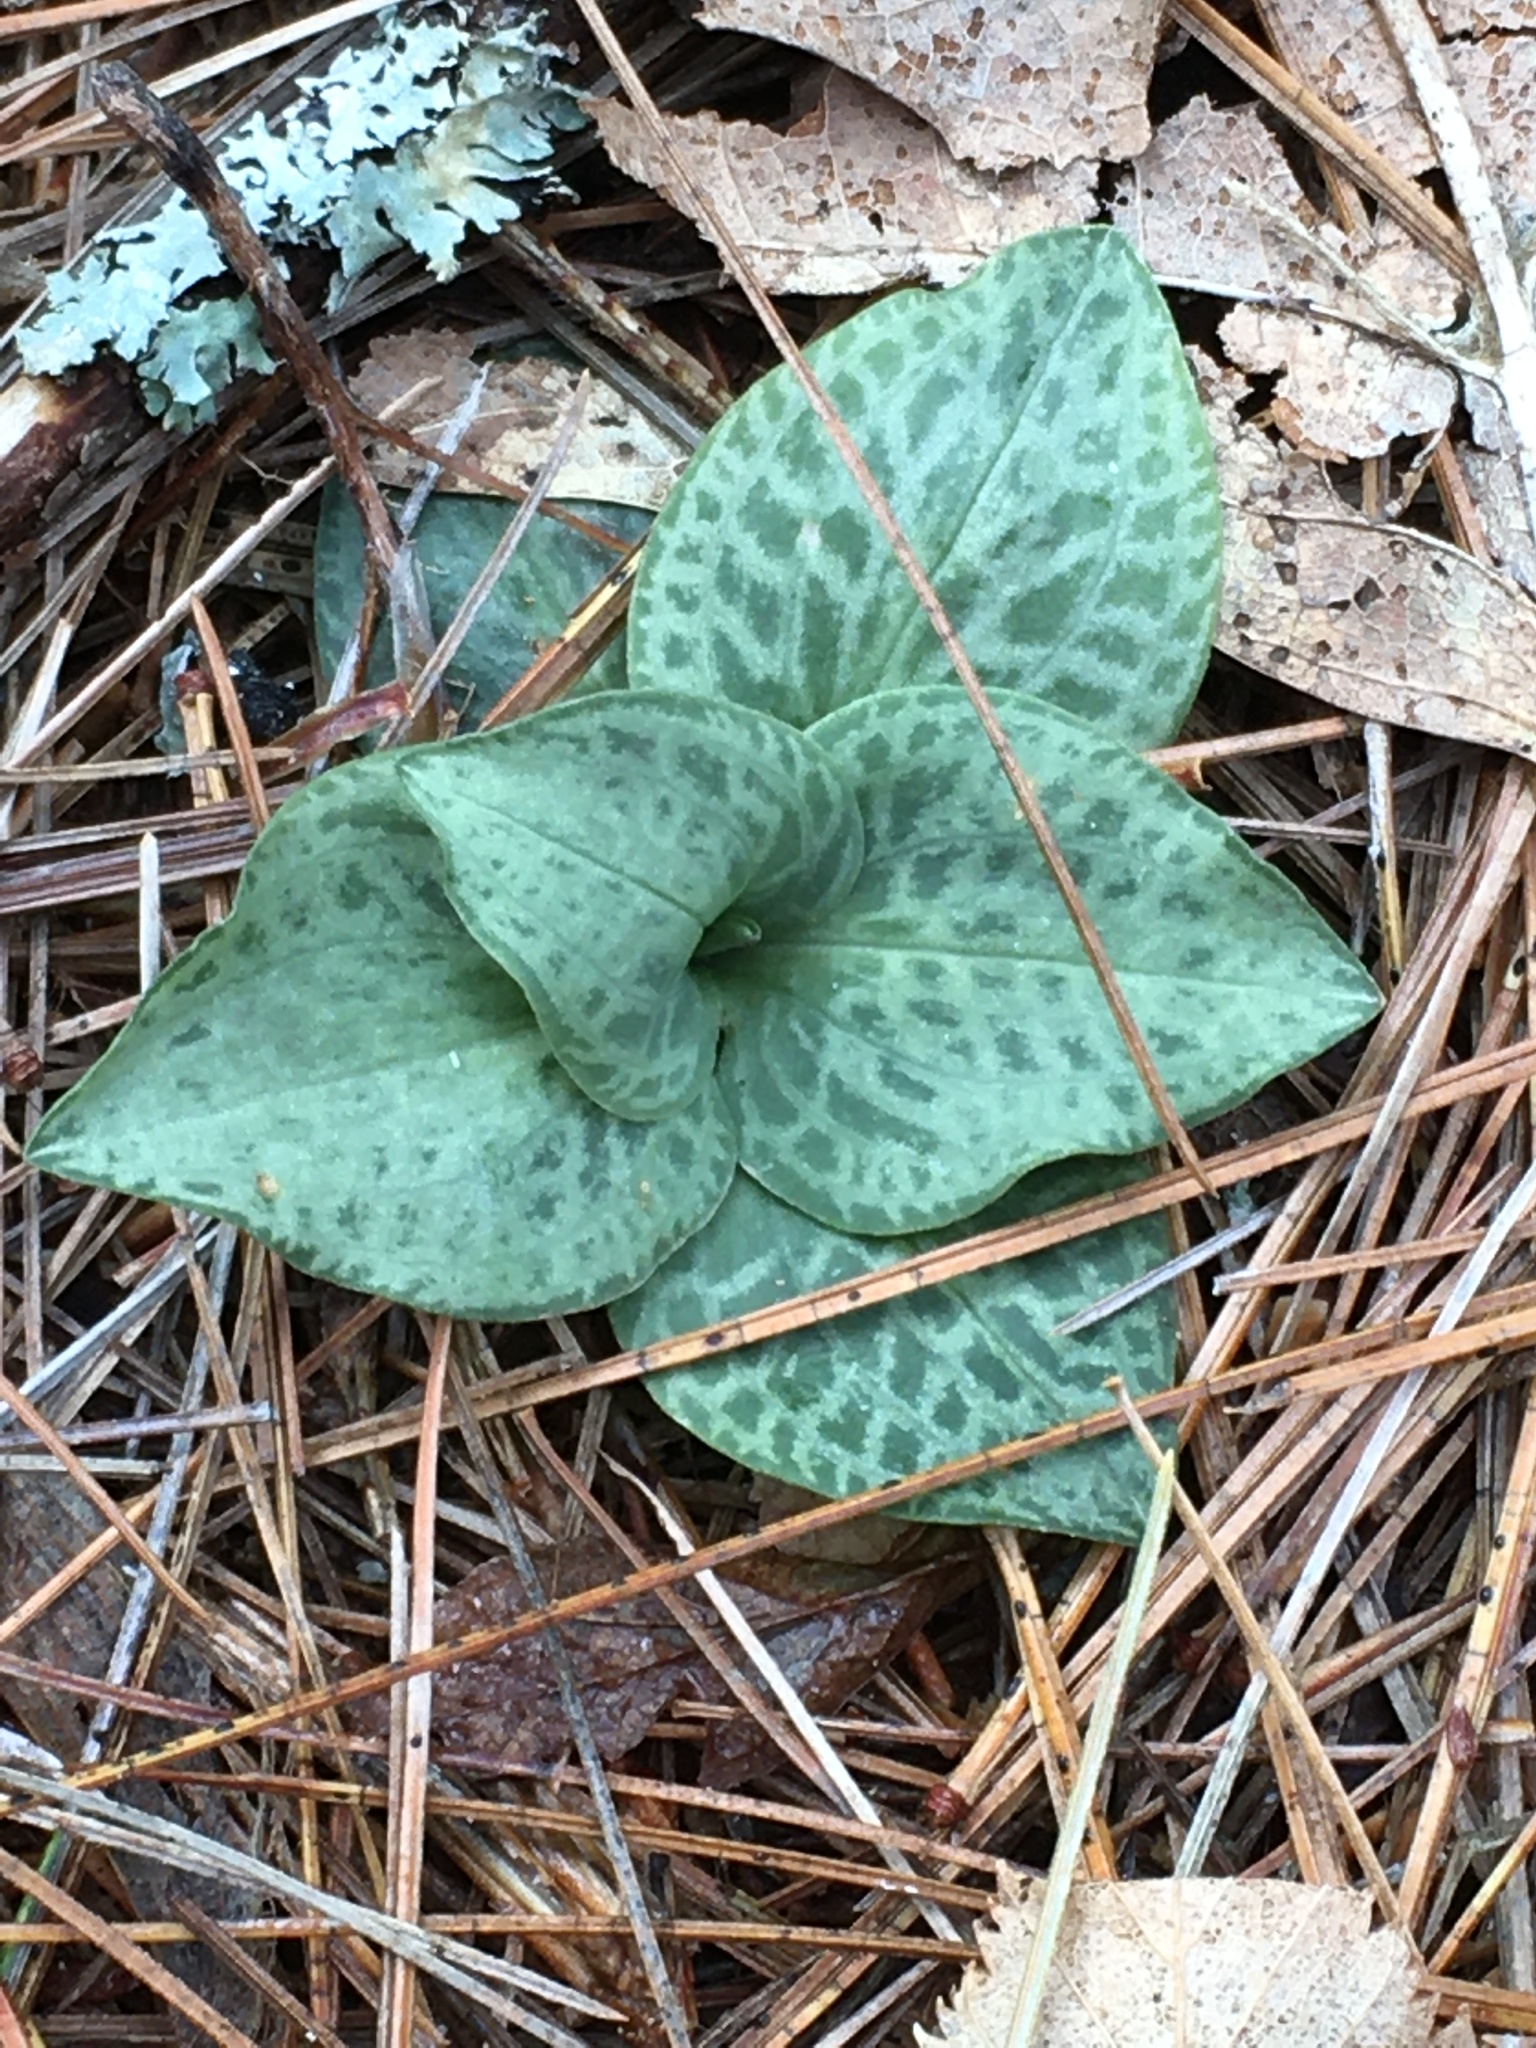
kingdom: Plantae
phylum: Tracheophyta
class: Liliopsida
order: Asparagales
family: Orchidaceae
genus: Goodyera
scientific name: Goodyera tesselata
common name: Checkered rattlesnake-plantain
